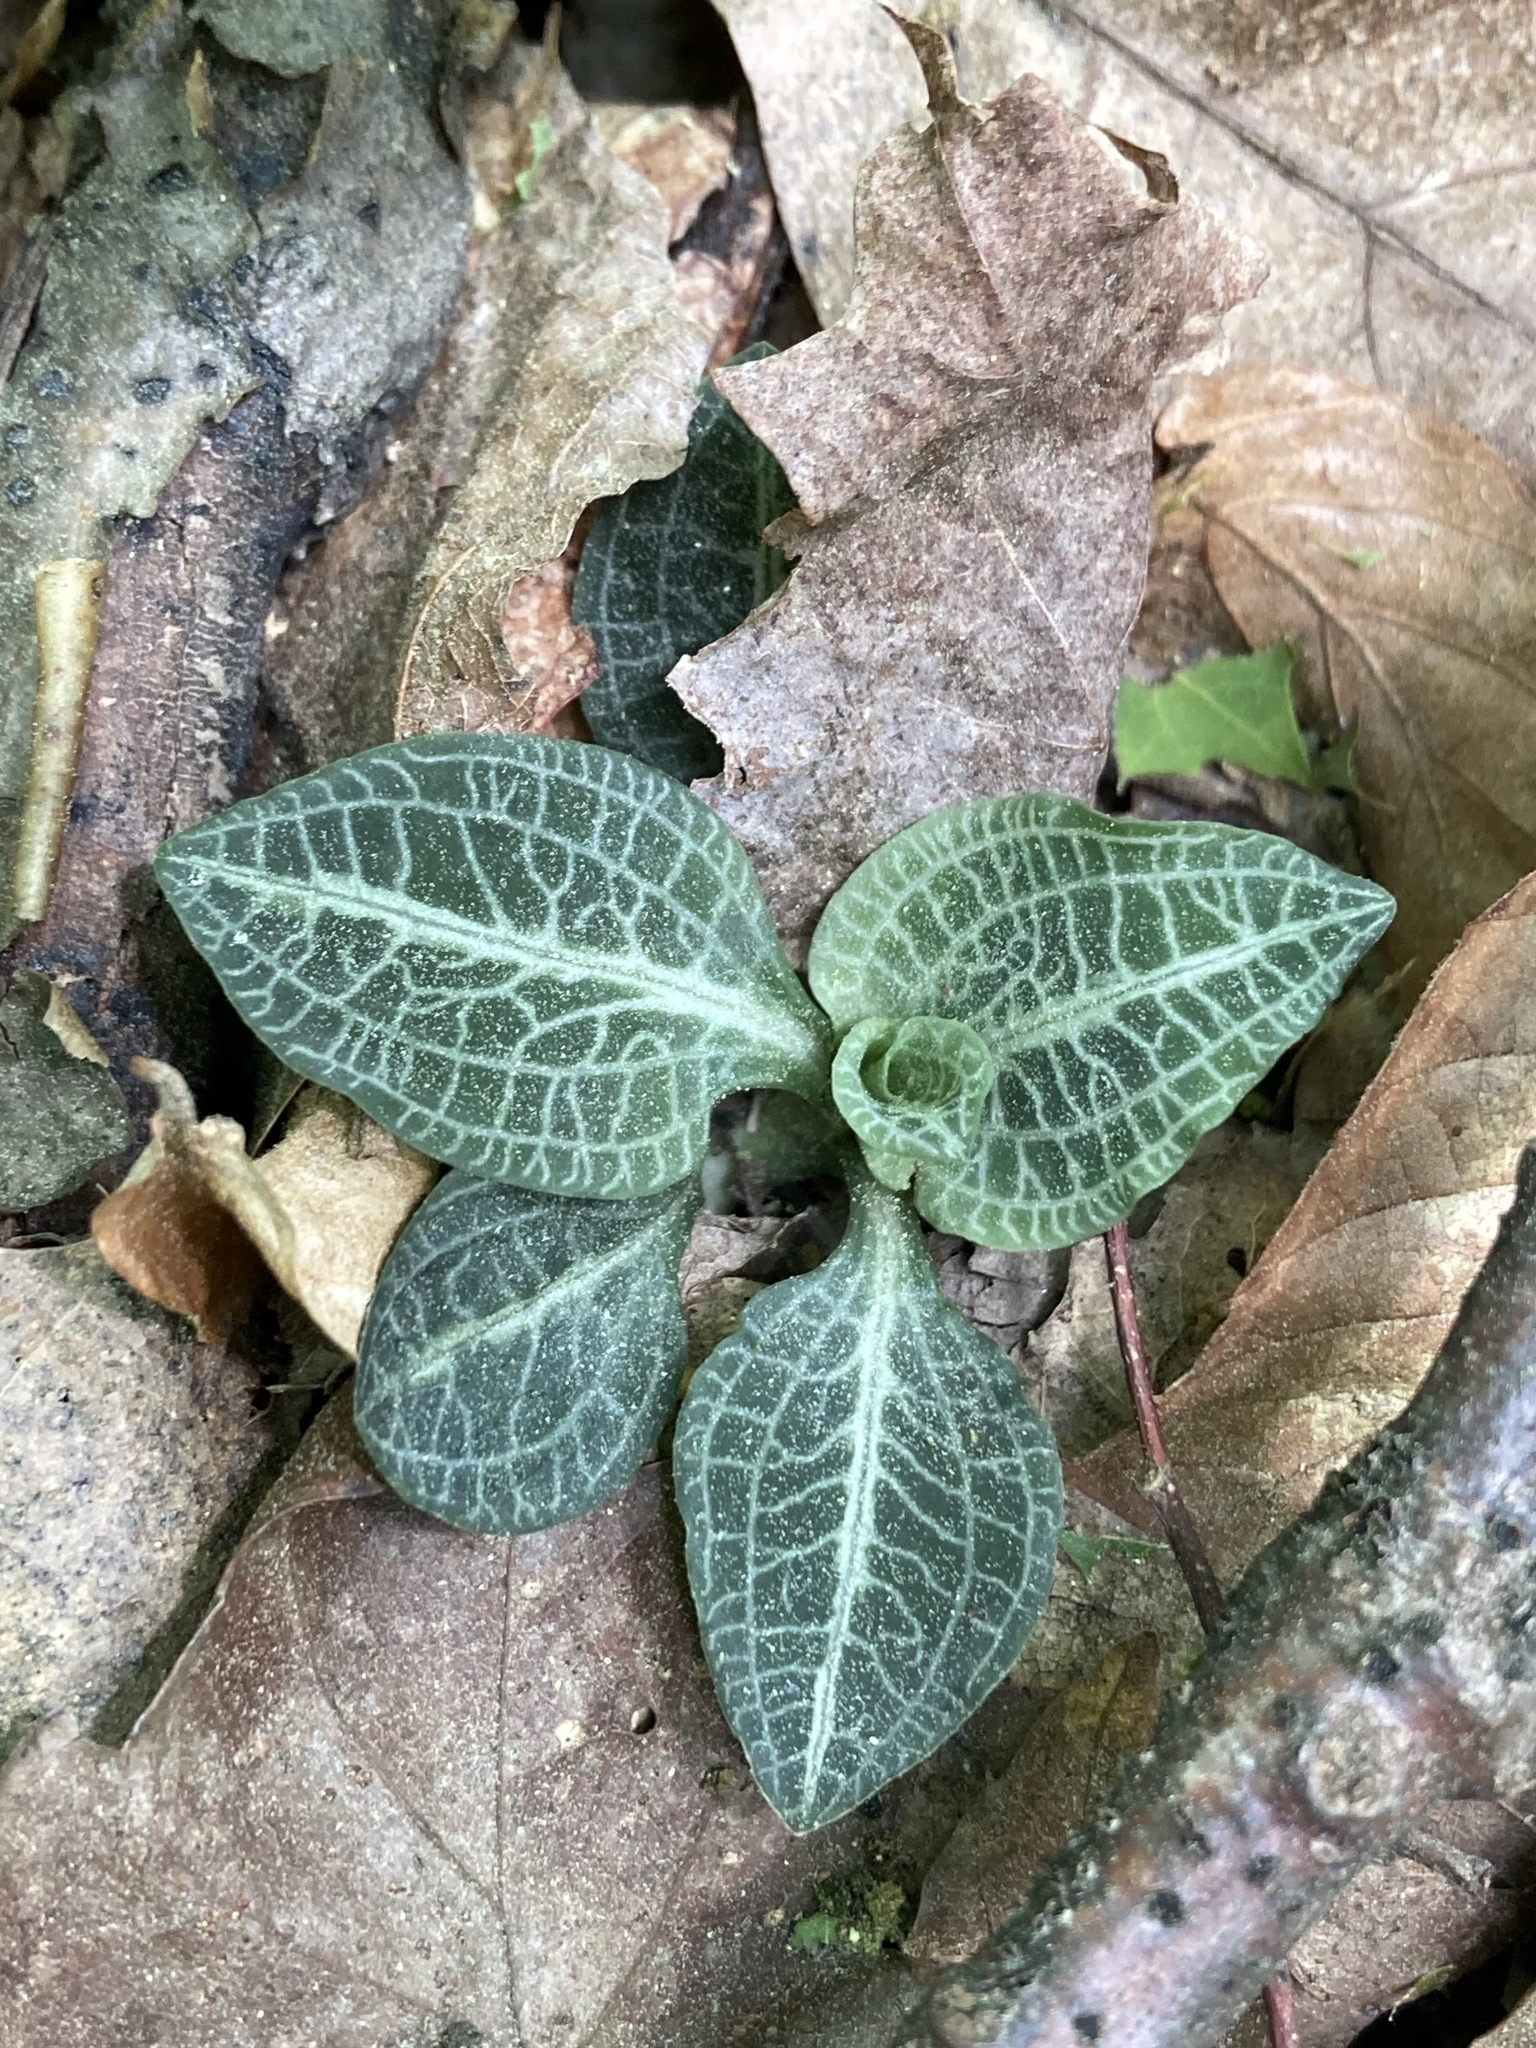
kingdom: Plantae
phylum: Tracheophyta
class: Liliopsida
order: Asparagales
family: Orchidaceae
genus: Goodyera
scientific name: Goodyera pubescens
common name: Downy rattlesnake-plantain
